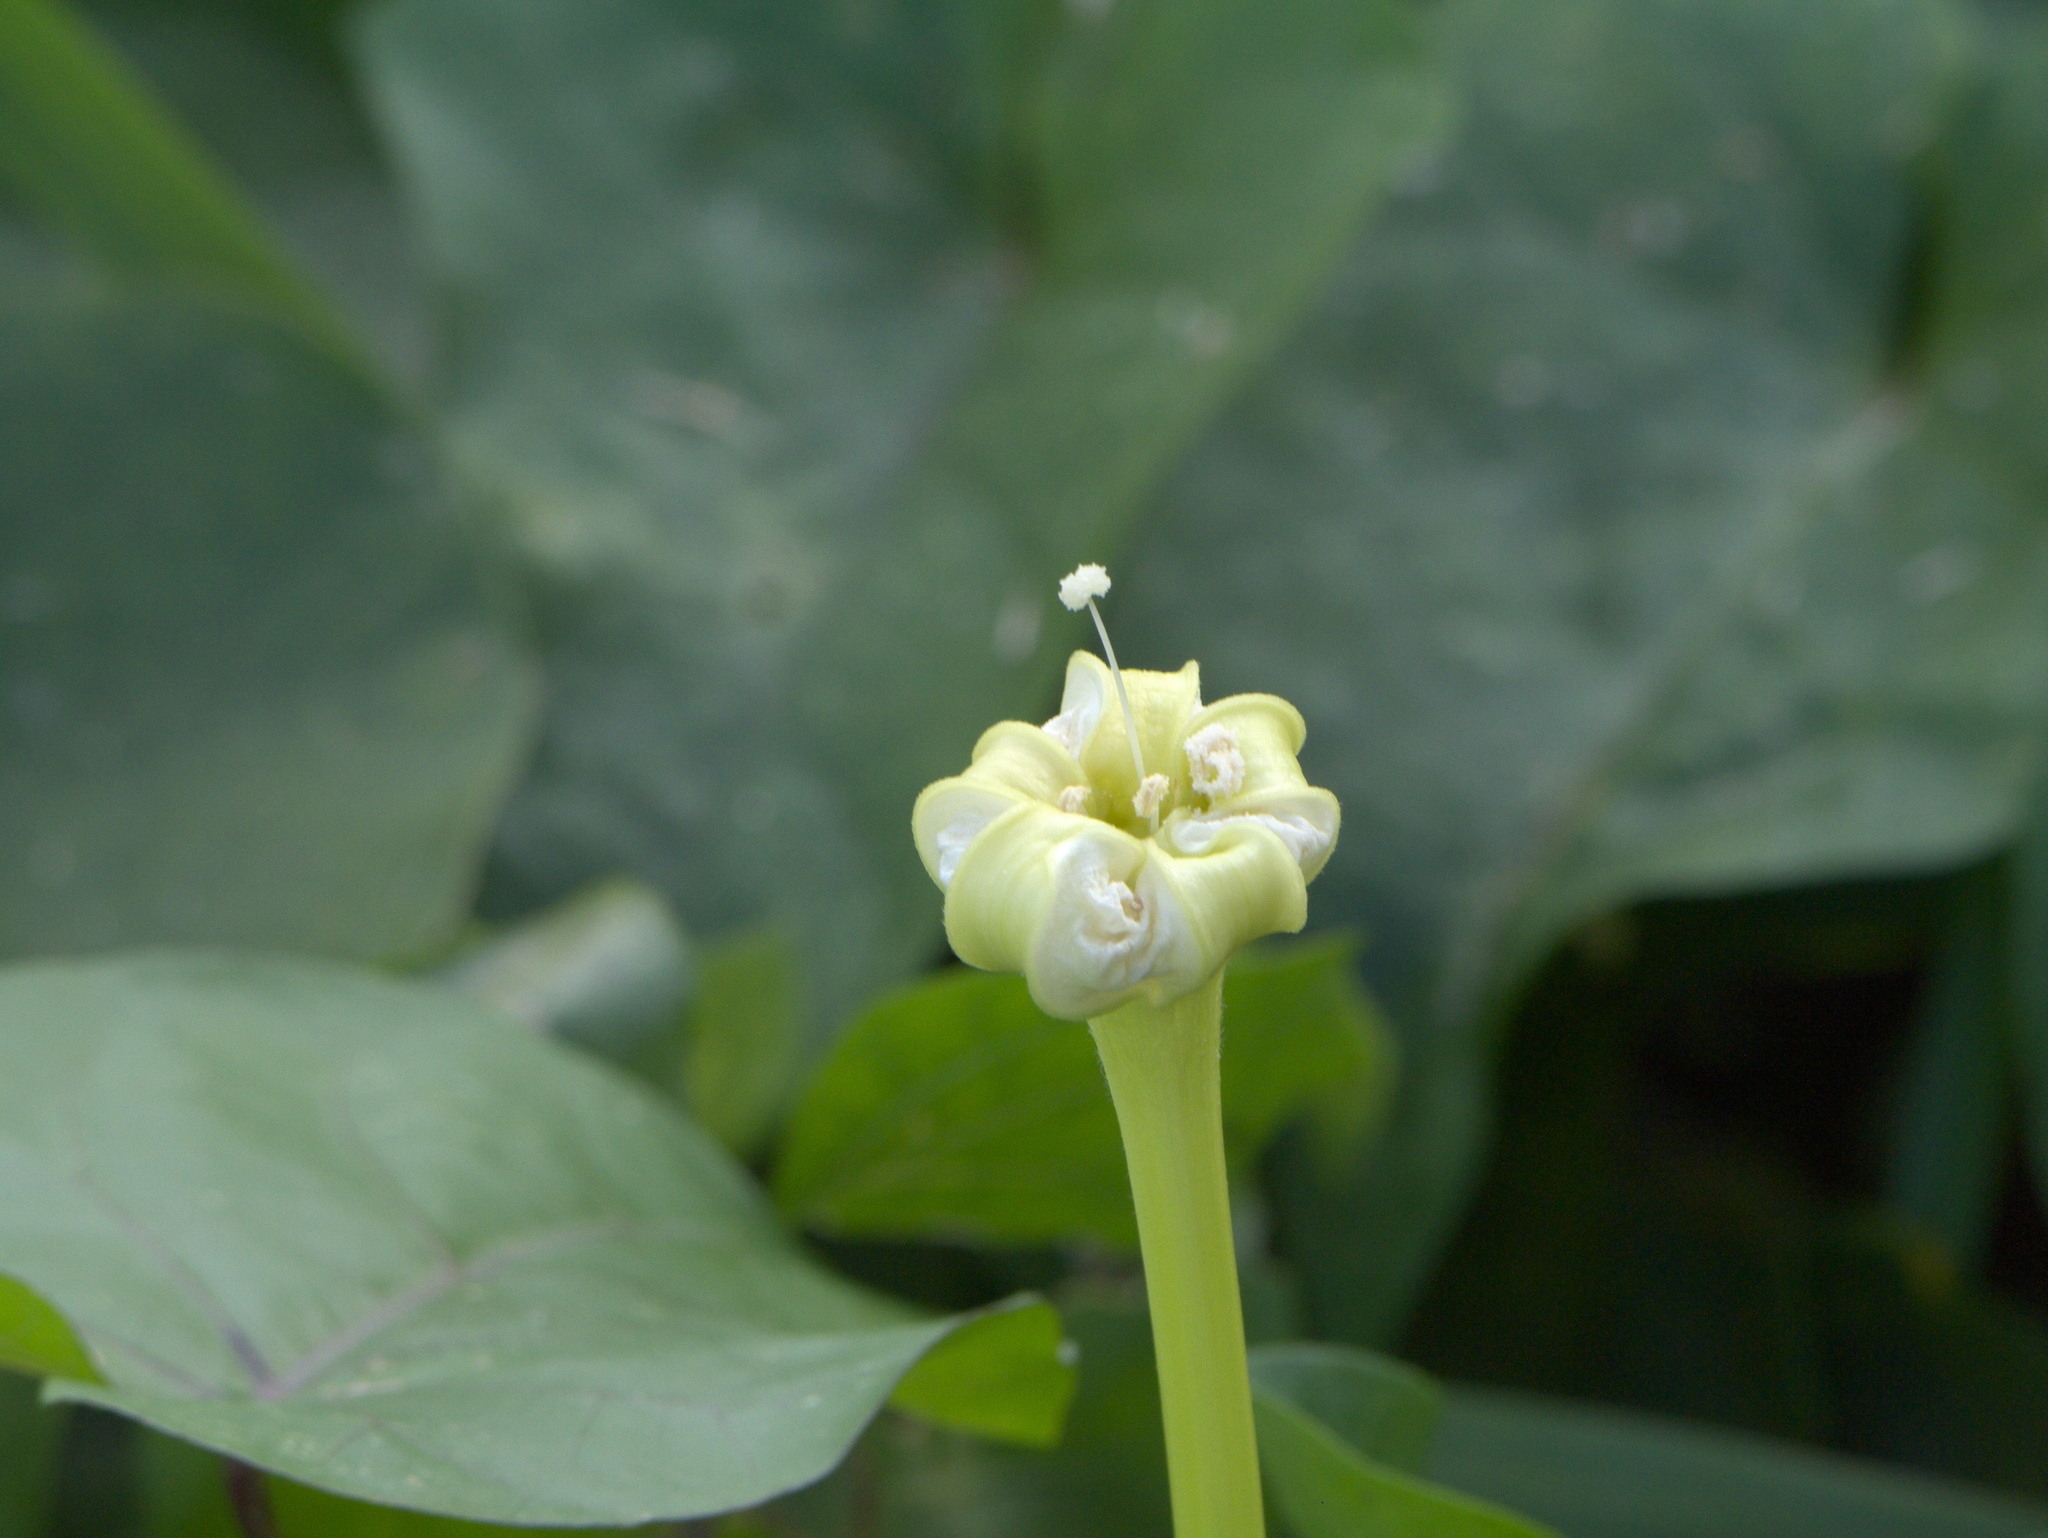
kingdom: Plantae
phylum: Tracheophyta
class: Magnoliopsida
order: Solanales
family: Convolvulaceae
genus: Ipomoea
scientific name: Ipomoea alba
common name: Moonflower
